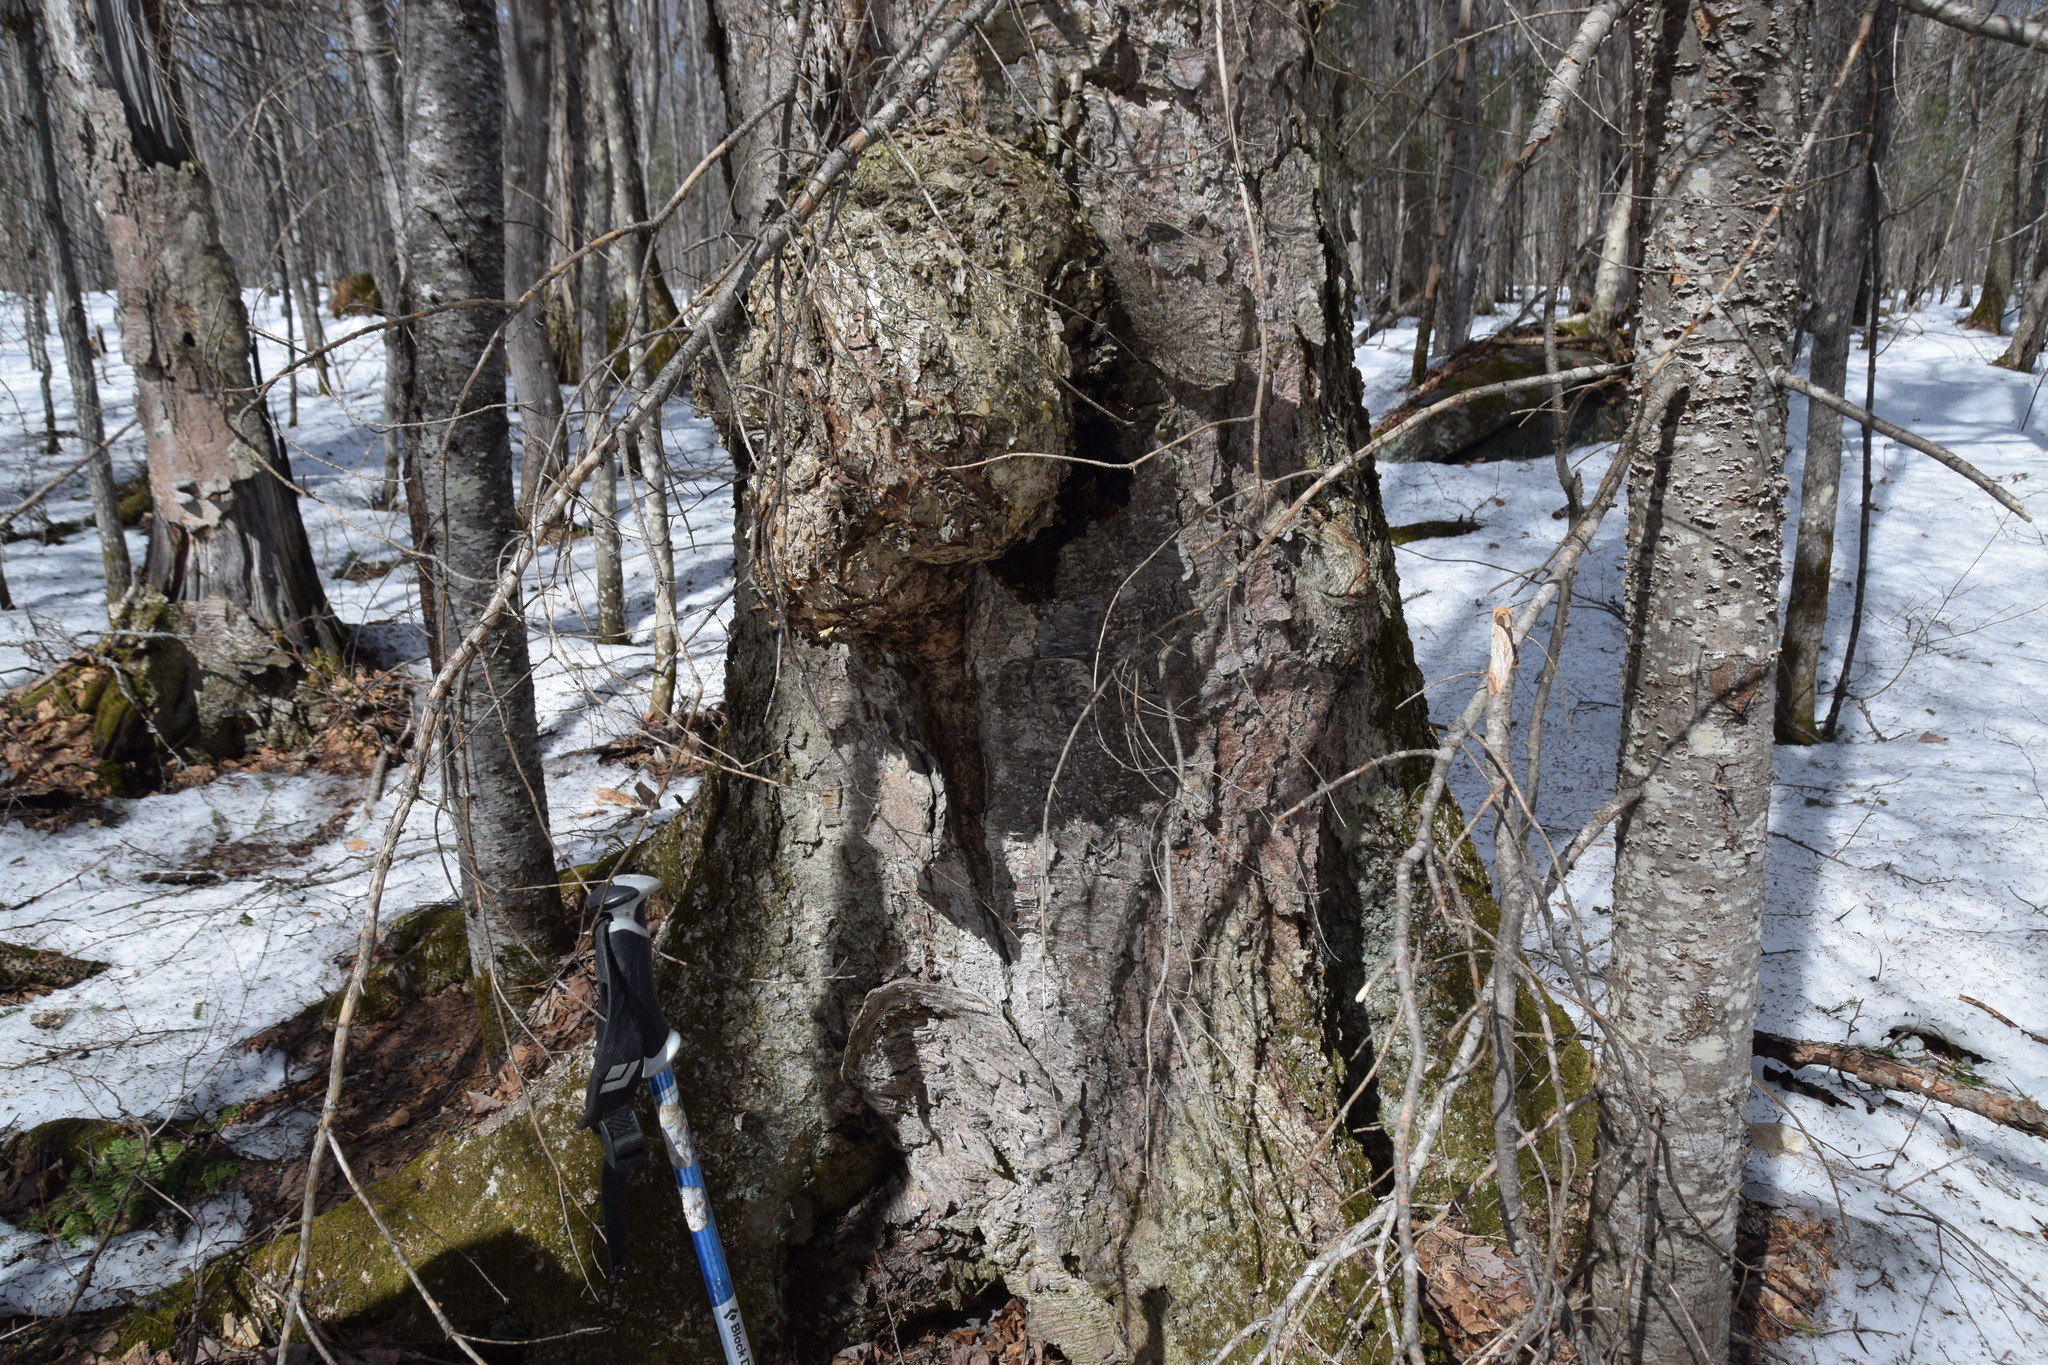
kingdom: Fungi
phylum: Basidiomycota
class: Agaricomycetes
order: Hymenochaetales
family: Hymenochaetaceae
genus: Inonotus
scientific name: Inonotus obliquus
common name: Chaga
